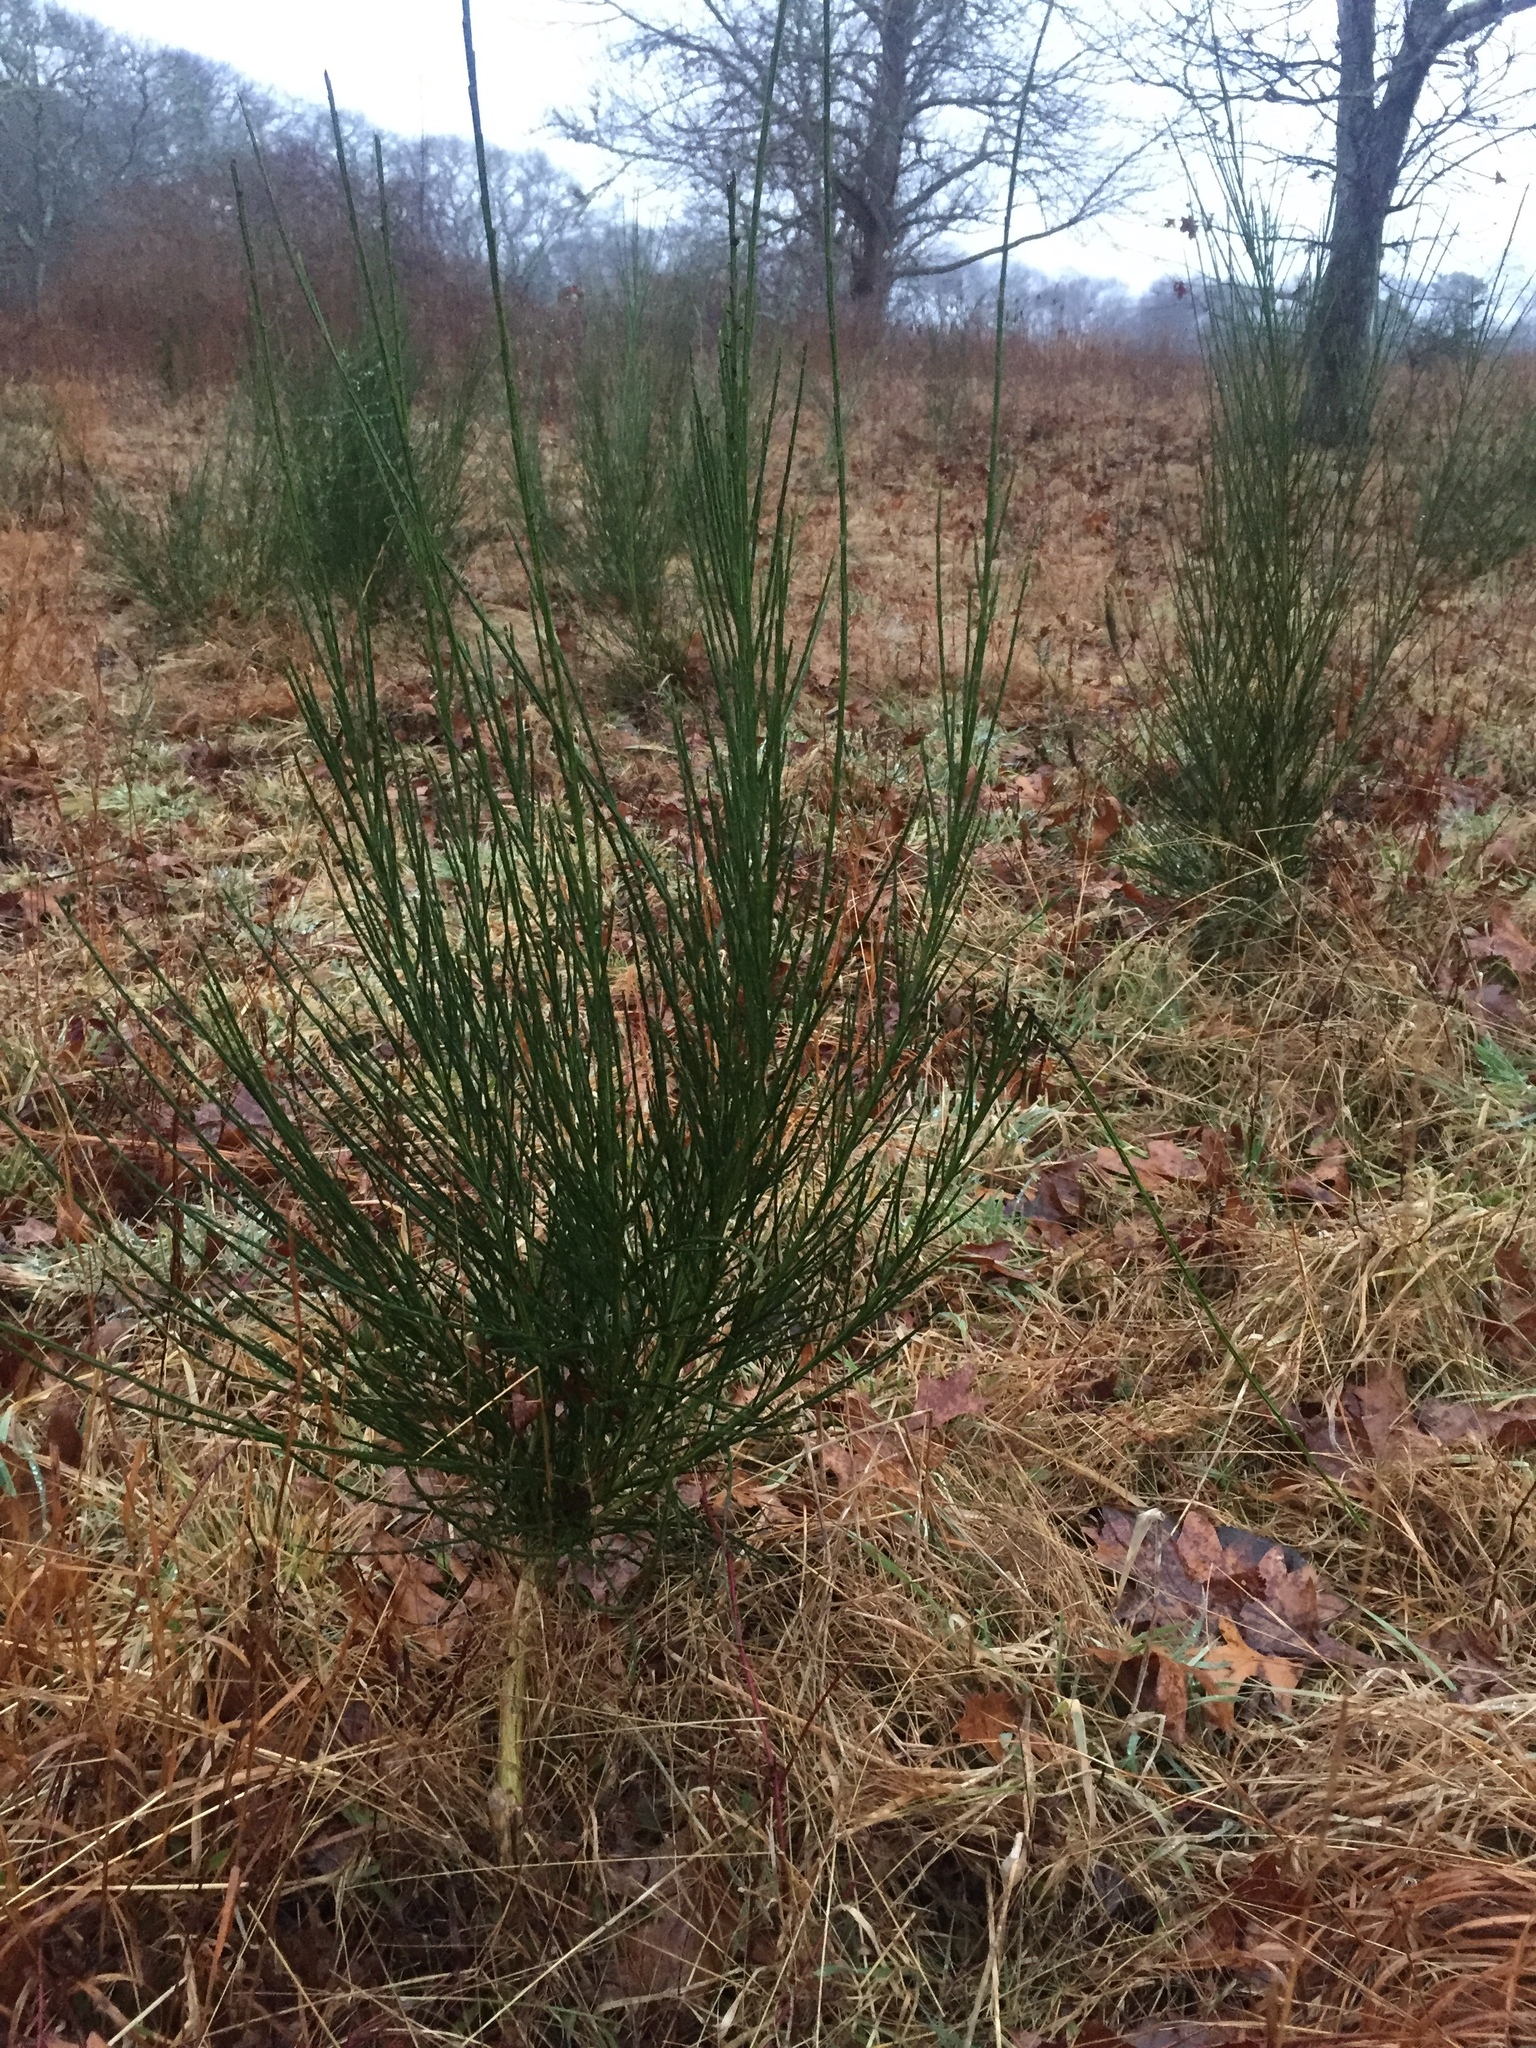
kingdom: Plantae
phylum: Tracheophyta
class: Magnoliopsida
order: Fabales
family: Fabaceae
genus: Cytisus
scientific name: Cytisus scoparius
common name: Scotch broom
